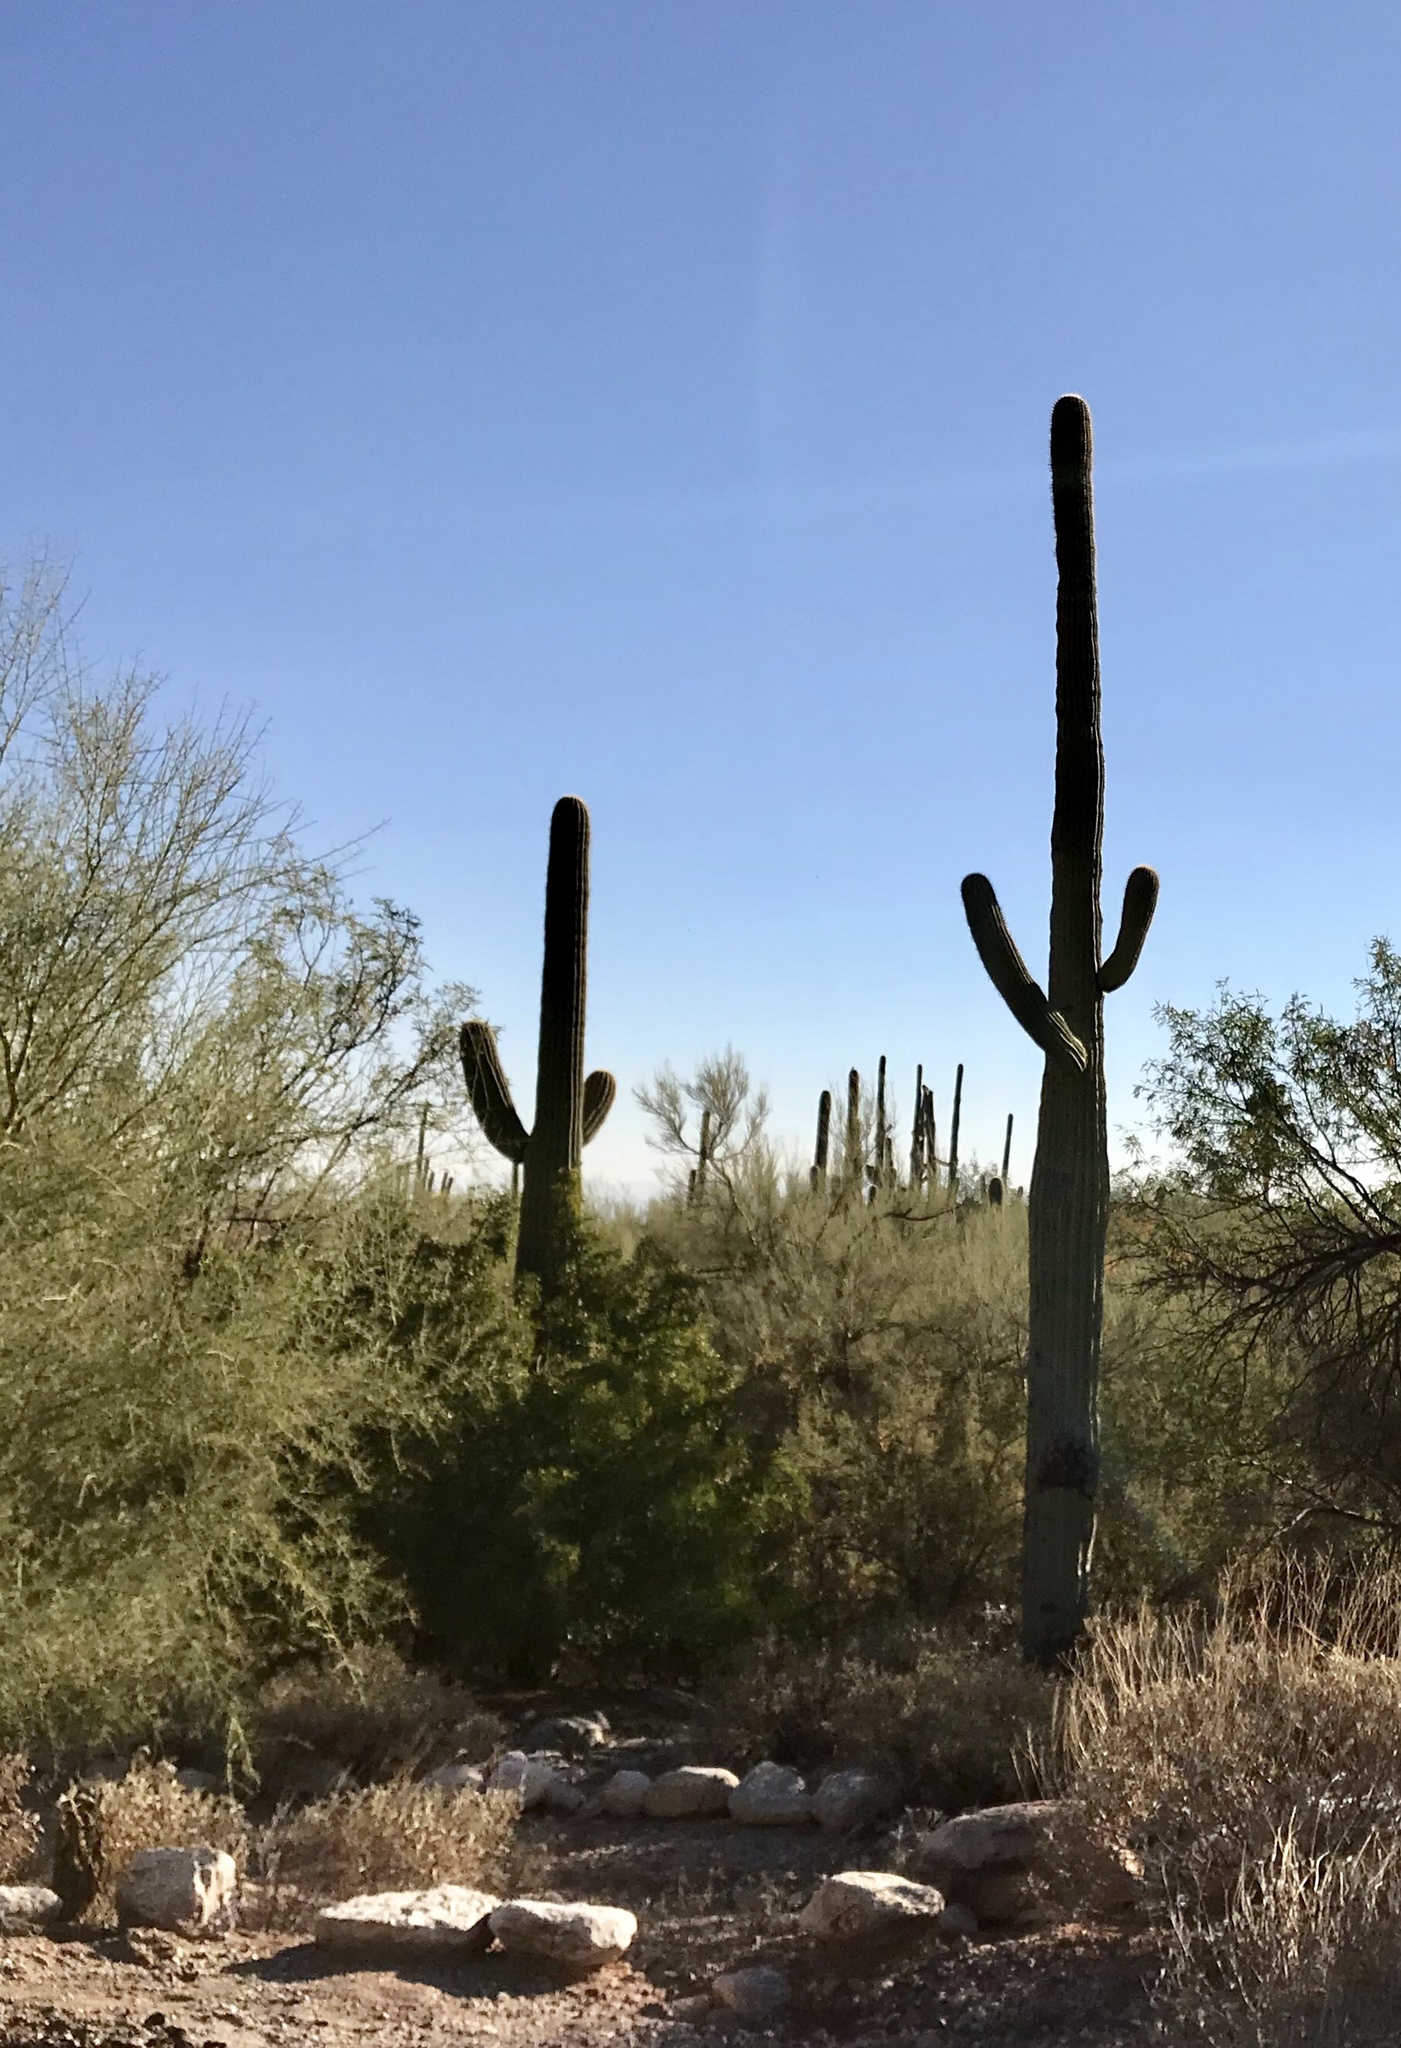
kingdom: Plantae
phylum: Tracheophyta
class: Magnoliopsida
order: Caryophyllales
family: Cactaceae
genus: Carnegiea
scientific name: Carnegiea gigantea
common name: Saguaro
